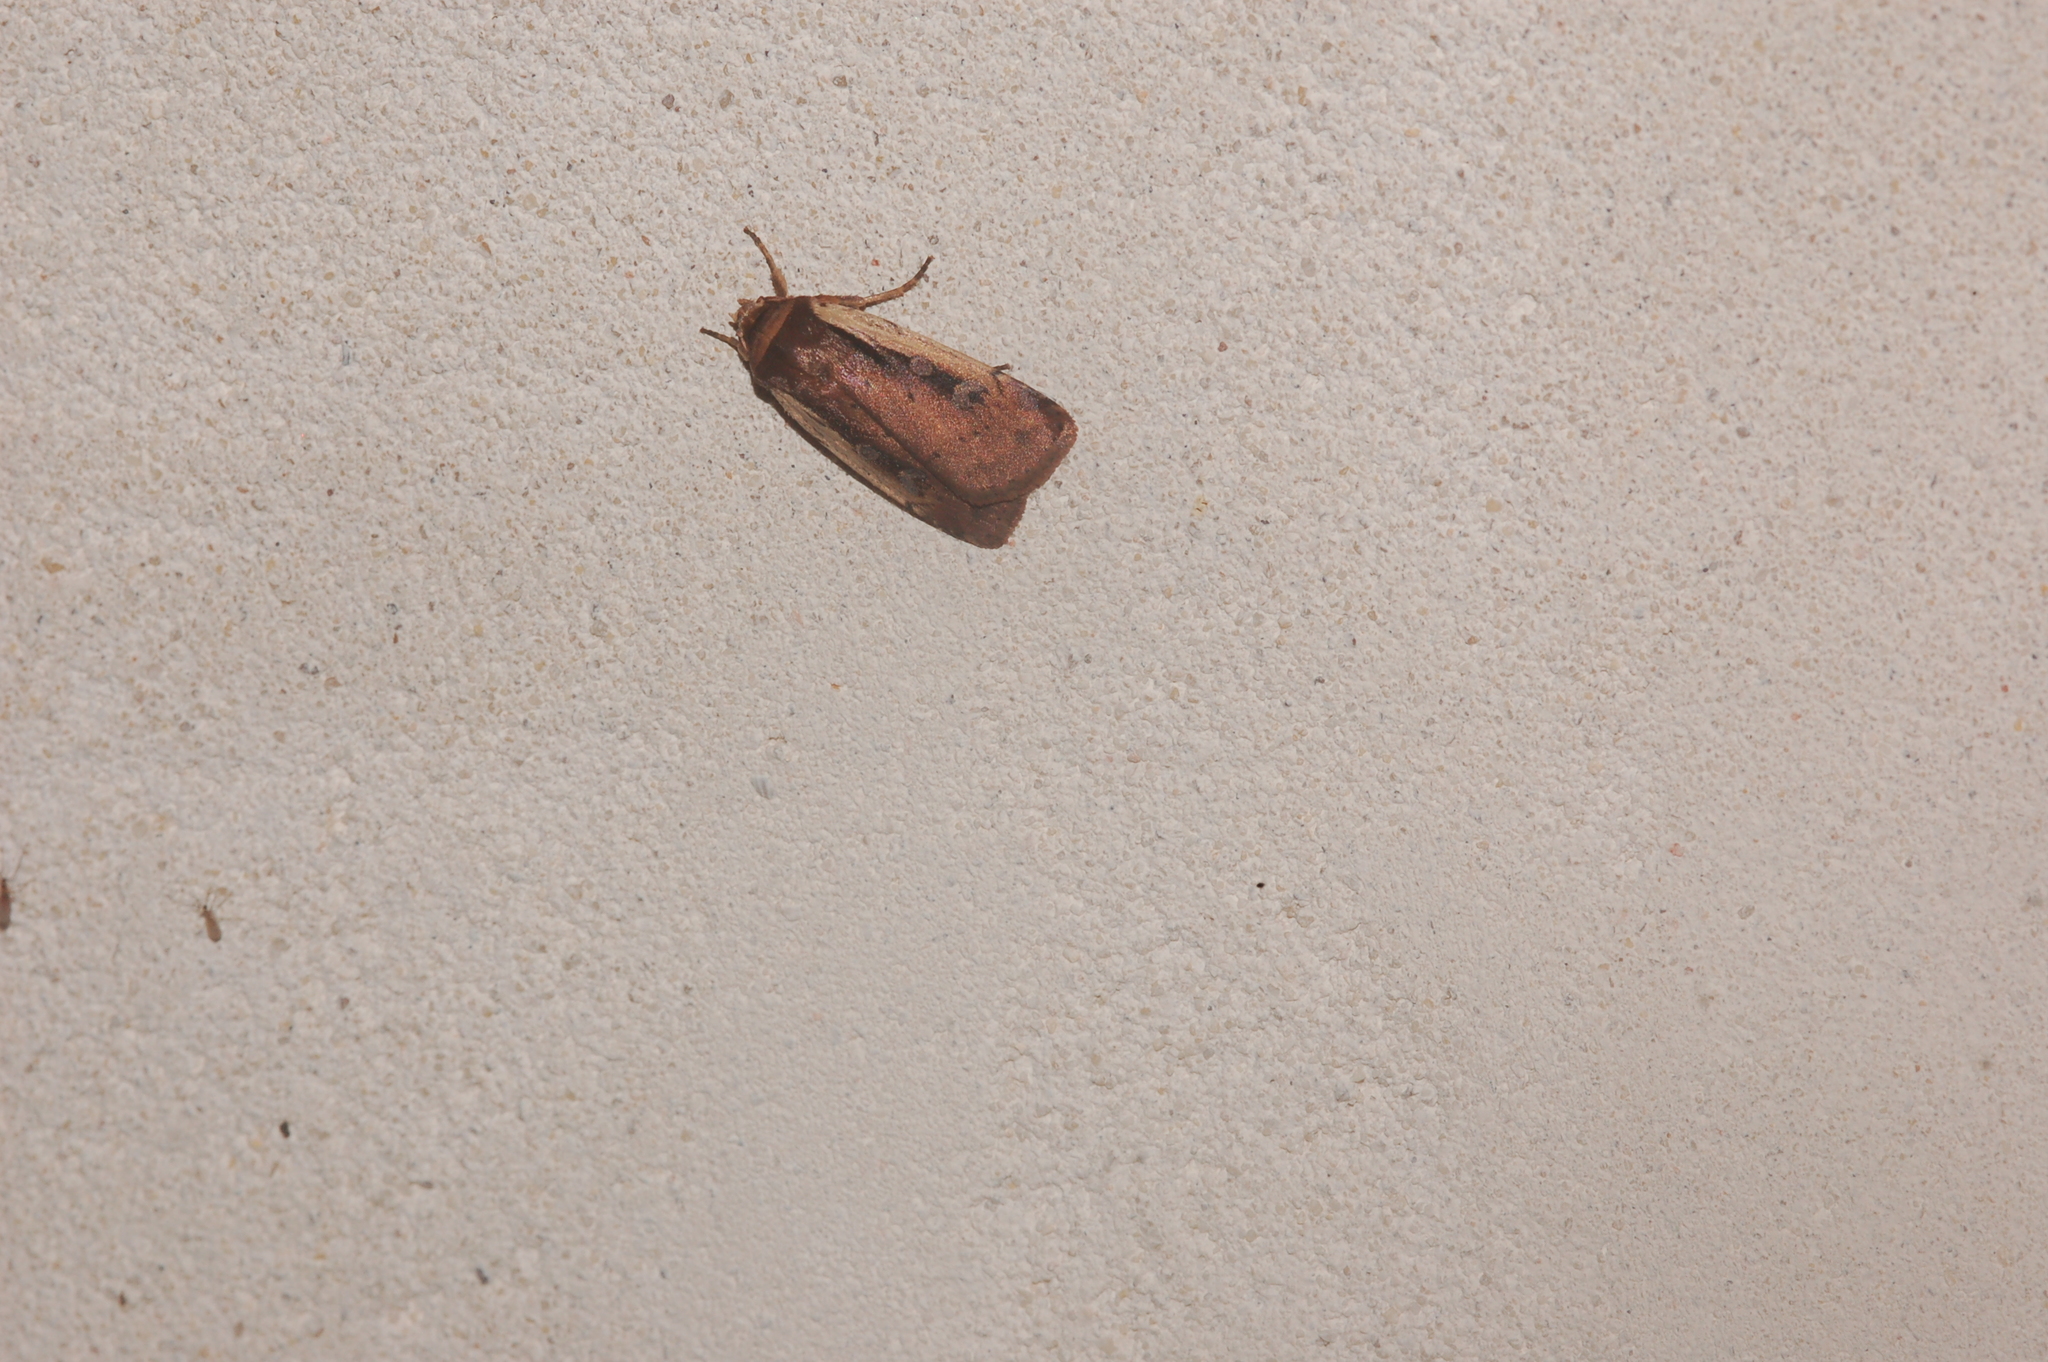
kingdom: Animalia
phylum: Arthropoda
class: Insecta
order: Lepidoptera
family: Noctuidae
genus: Ochropleura
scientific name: Ochropleura implecta
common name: Flame-shouldered dart
